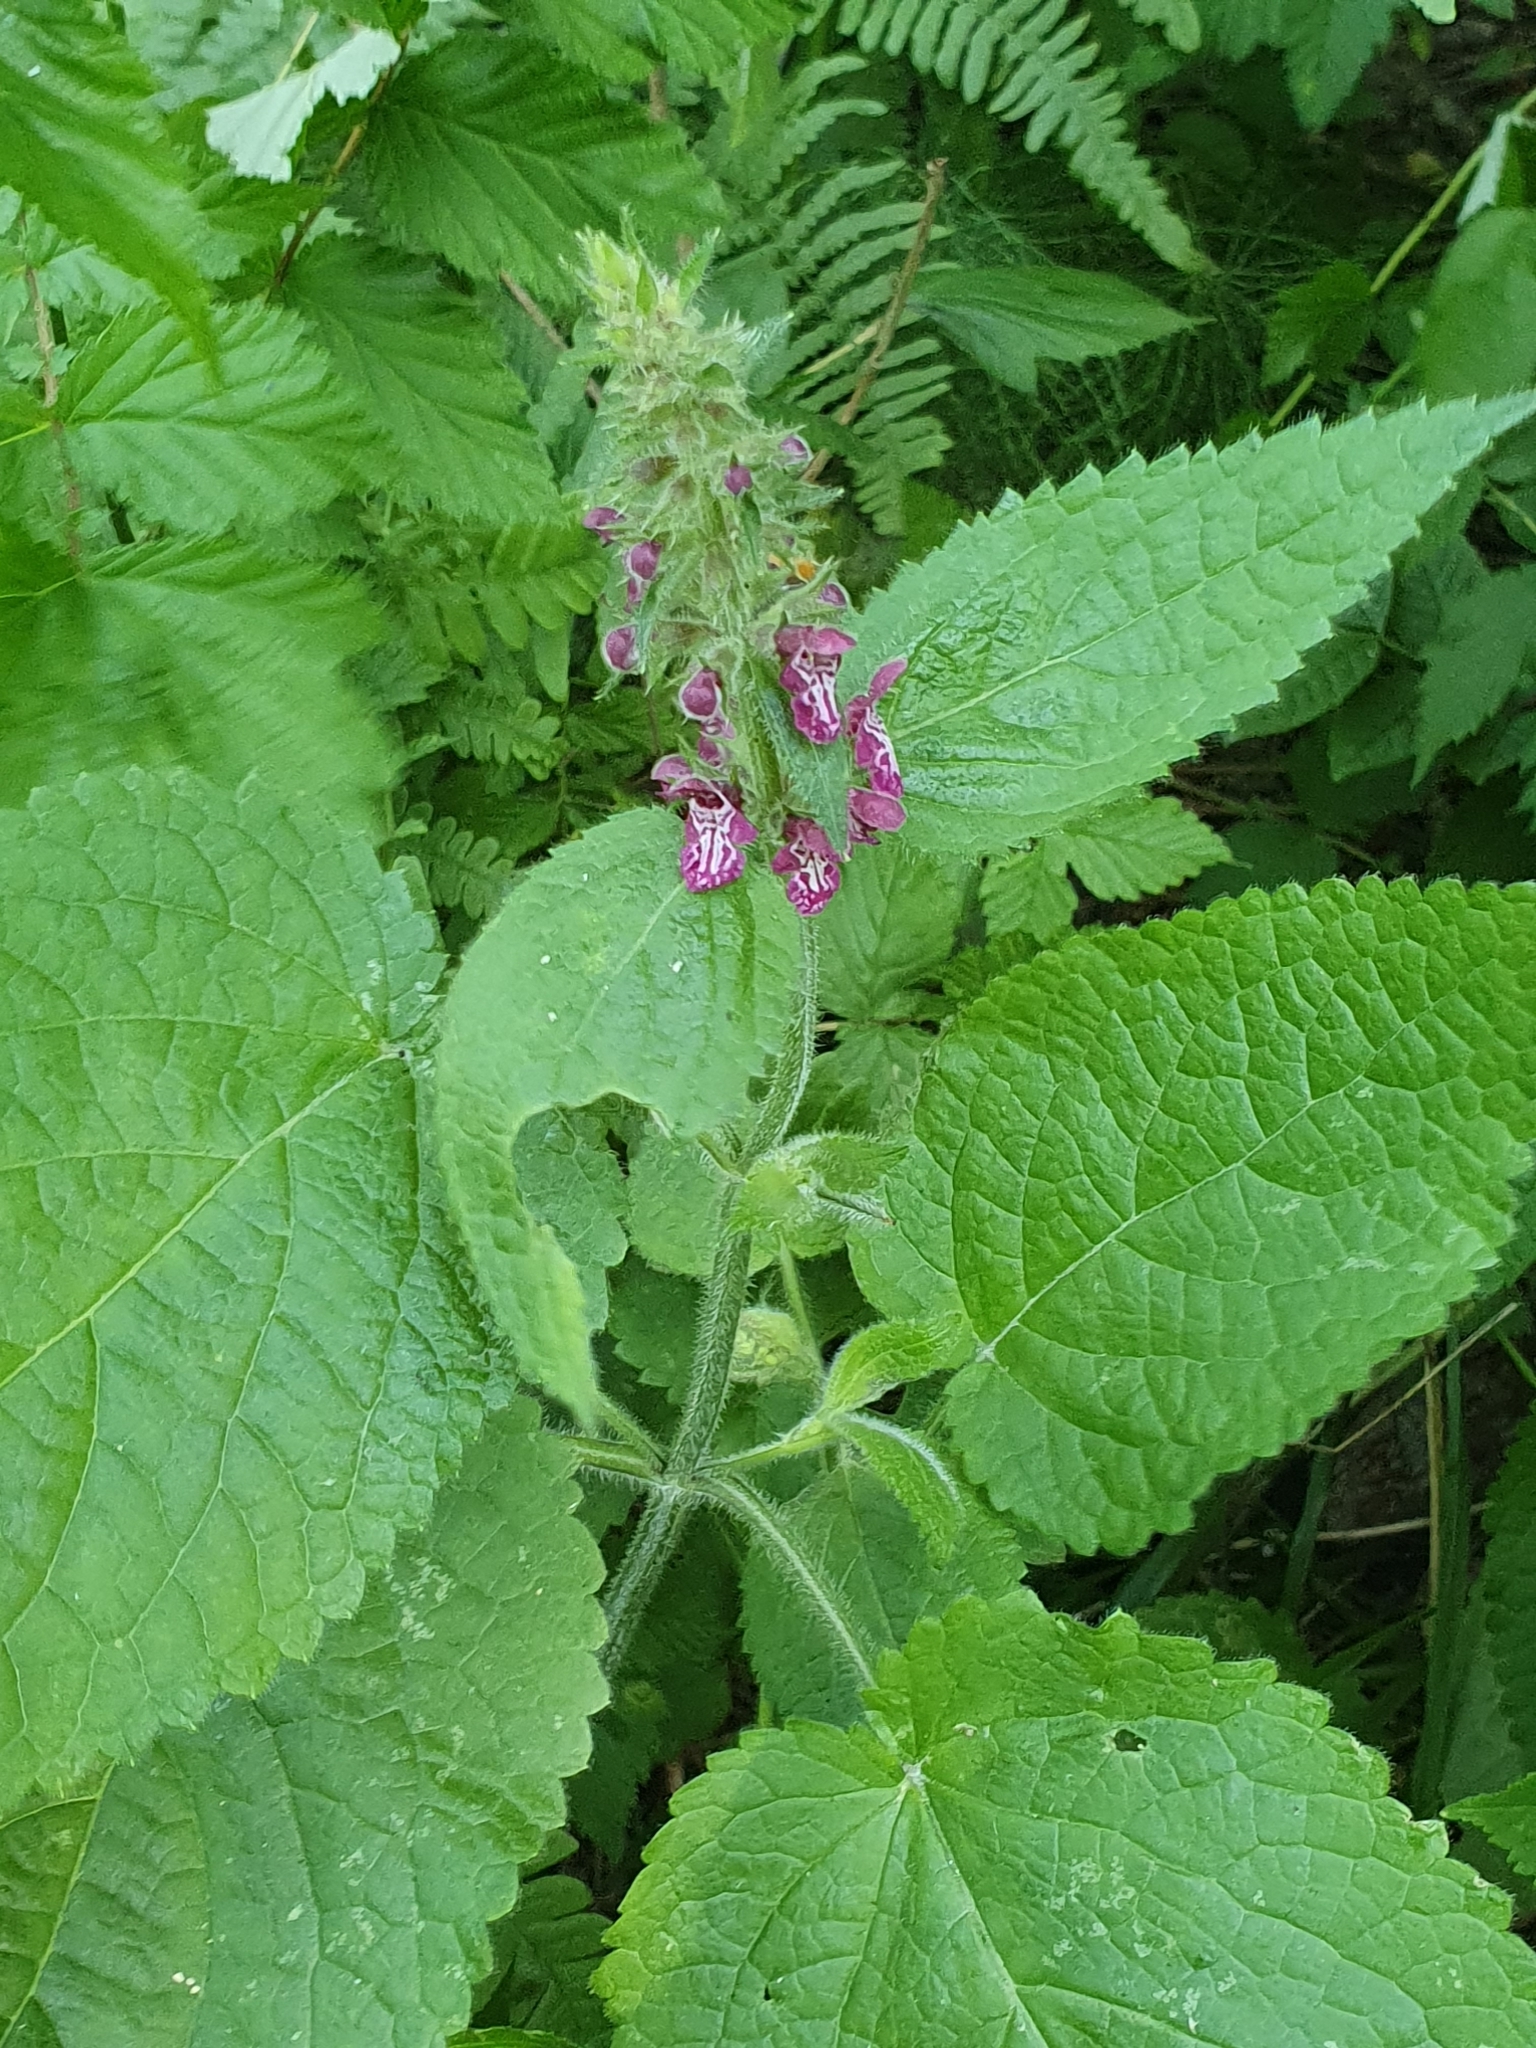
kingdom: Plantae
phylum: Tracheophyta
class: Magnoliopsida
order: Lamiales
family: Lamiaceae
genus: Stachys
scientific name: Stachys sylvatica
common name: Hedge woundwort
